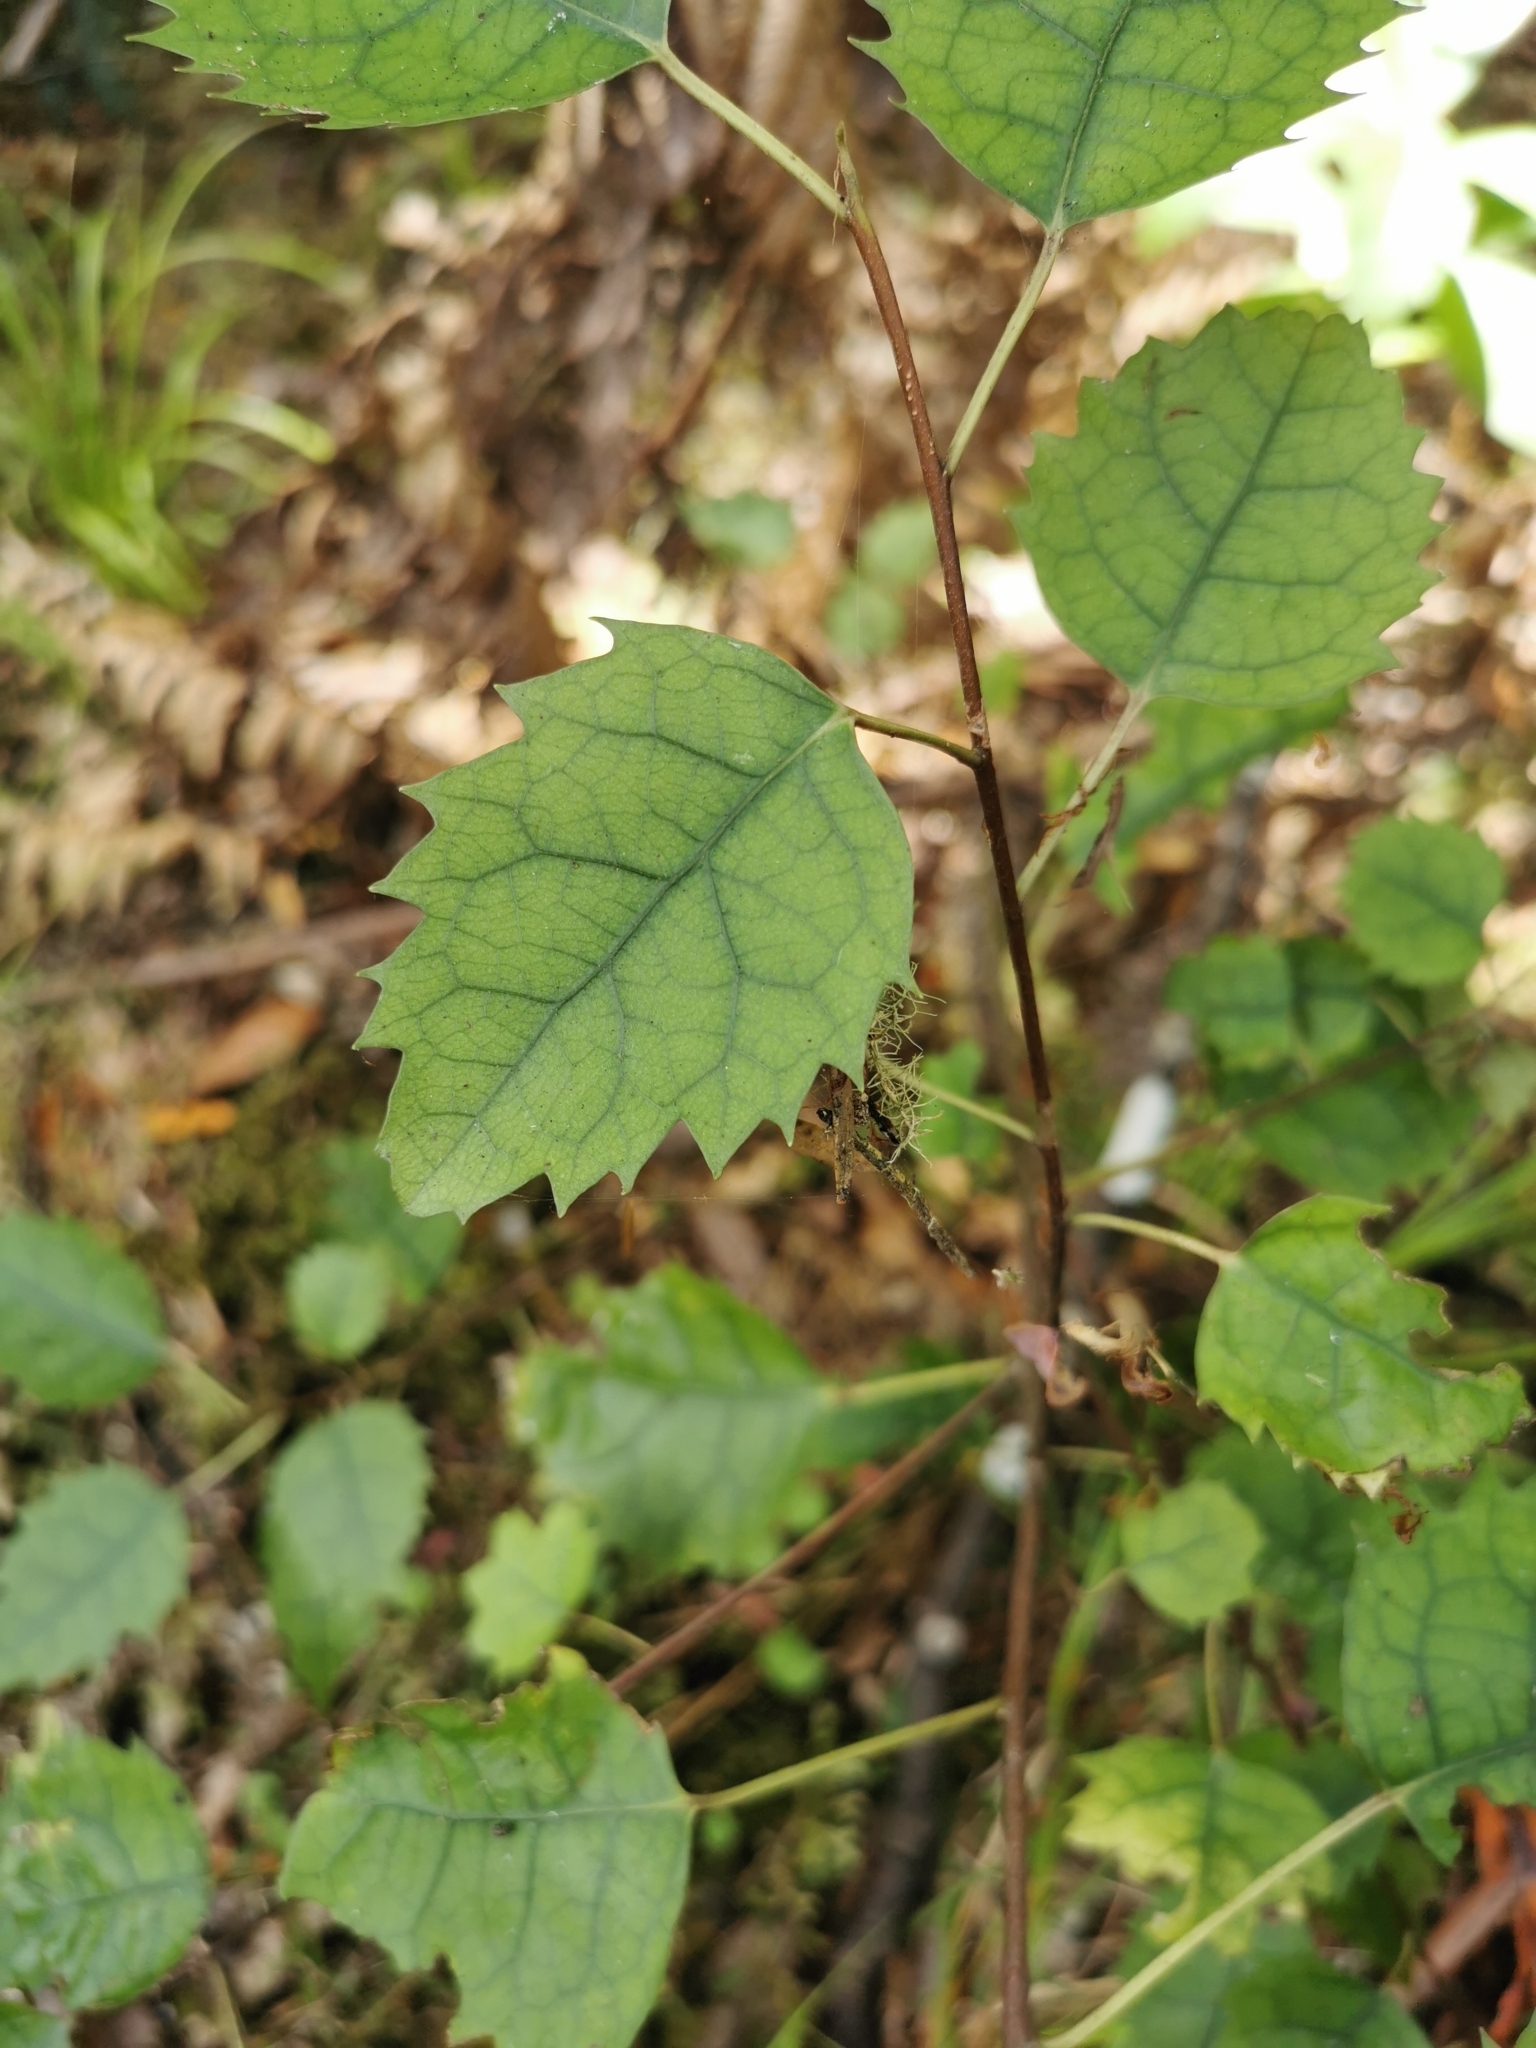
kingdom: Plantae
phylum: Tracheophyta
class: Magnoliopsida
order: Malvales
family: Malvaceae
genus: Hoheria
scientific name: Hoheria populnea
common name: Lacebark
